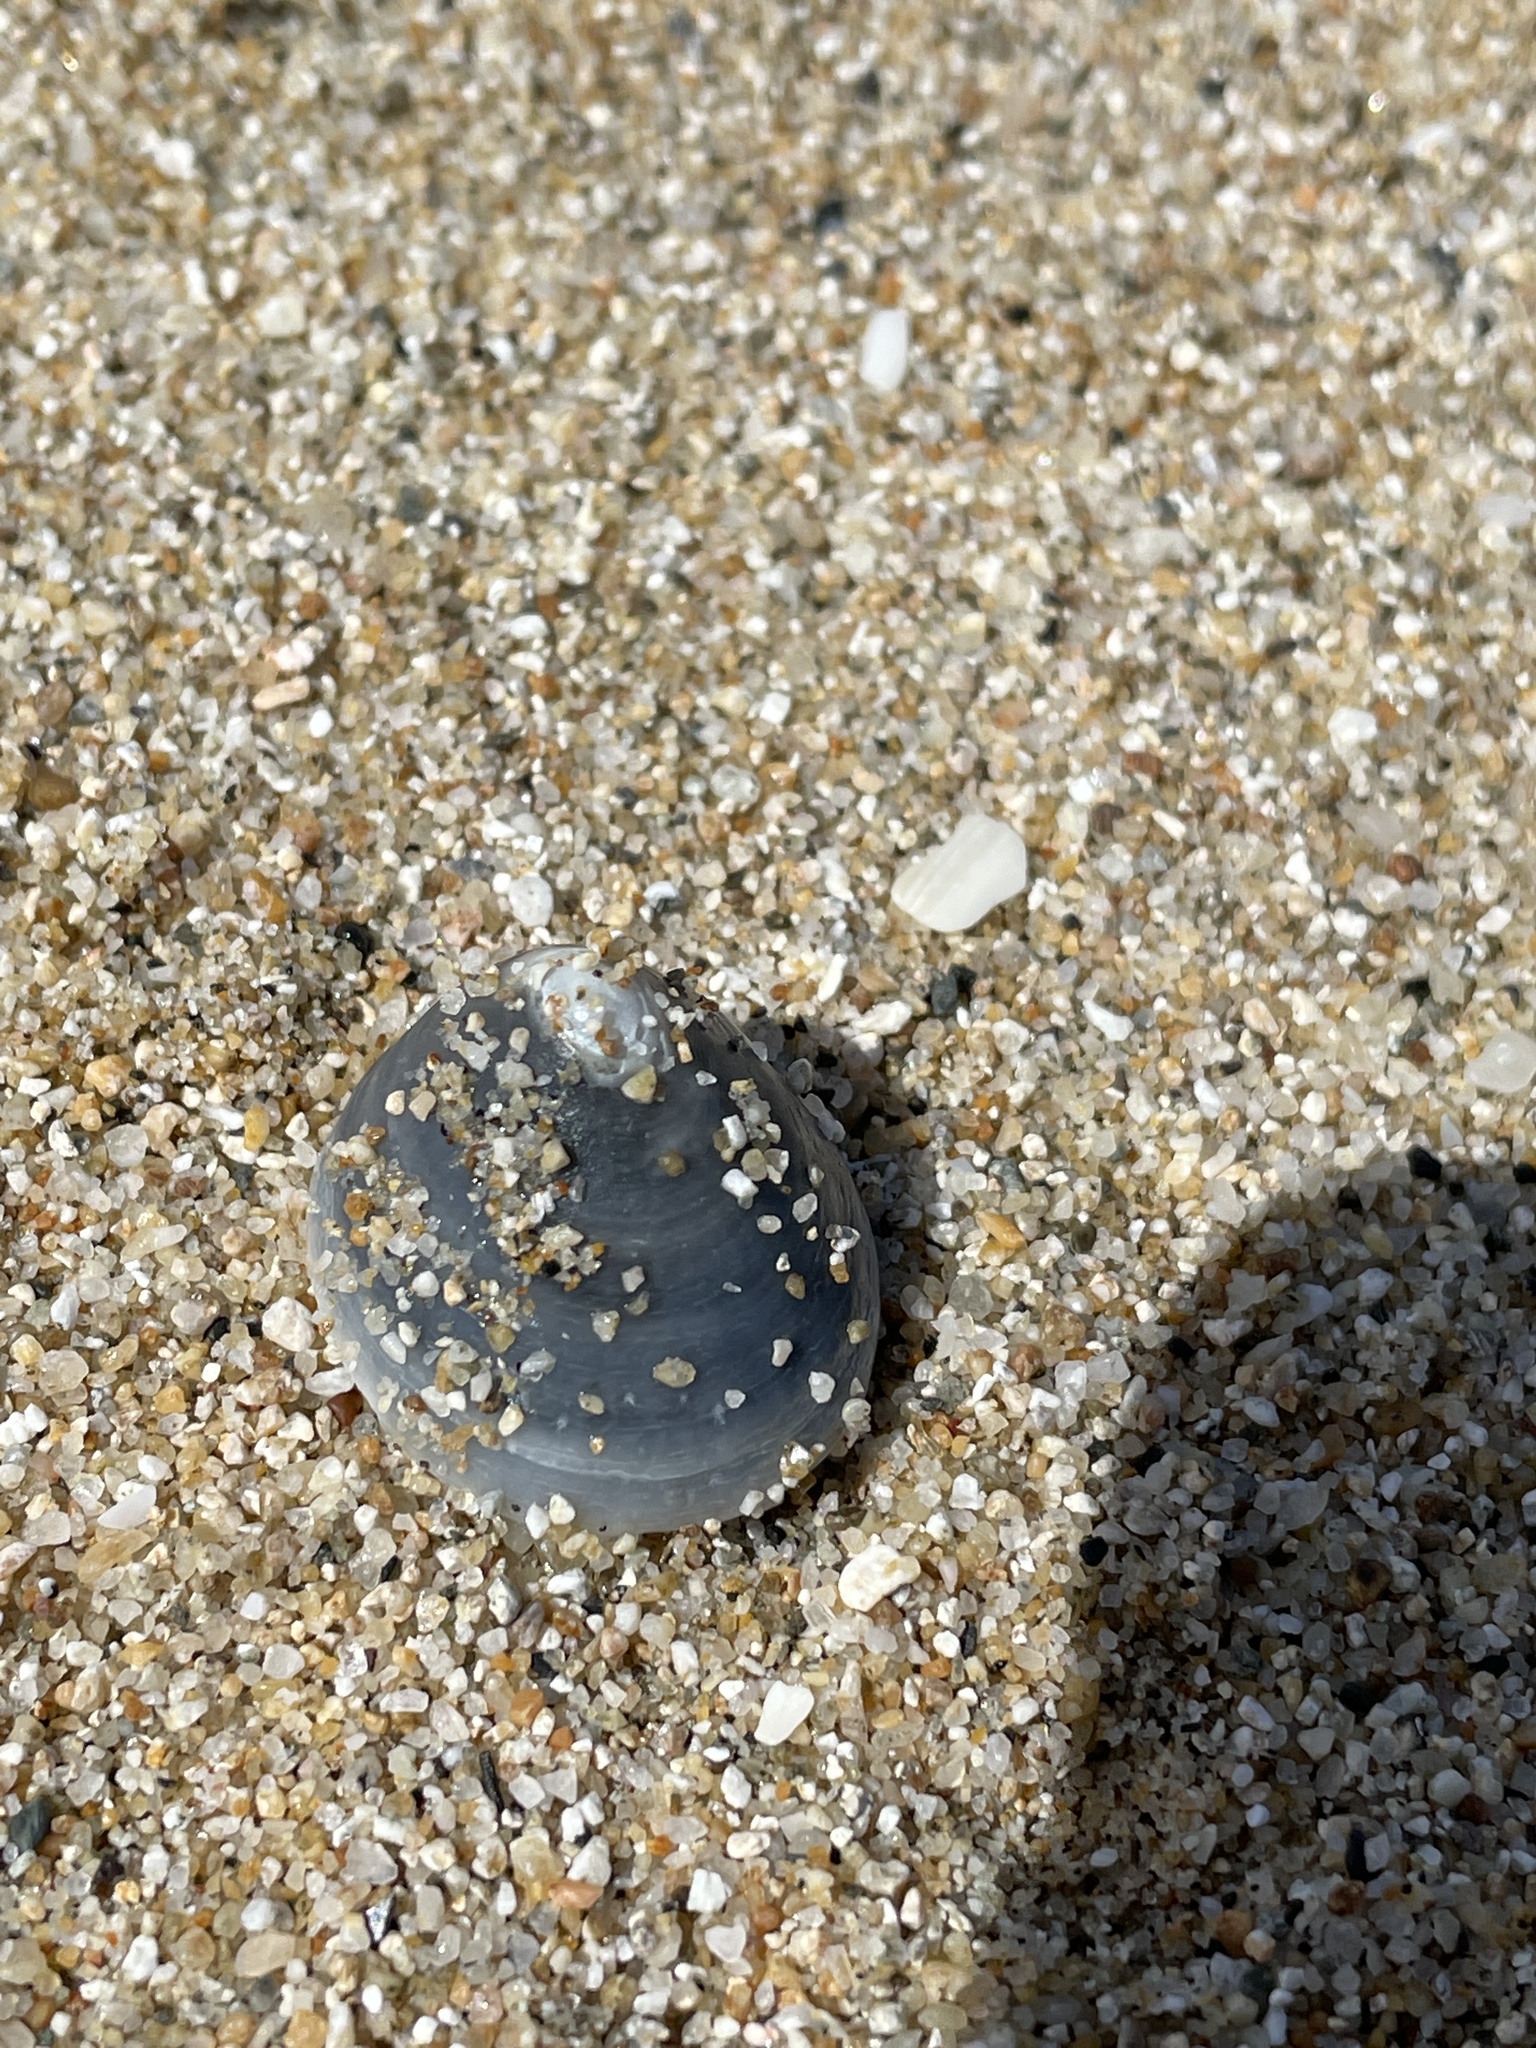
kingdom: Animalia
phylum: Mollusca
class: Gastropoda
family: Acmaeidae
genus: Acmaea
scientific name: Acmaea mitra
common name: Pacific white cap limpet
